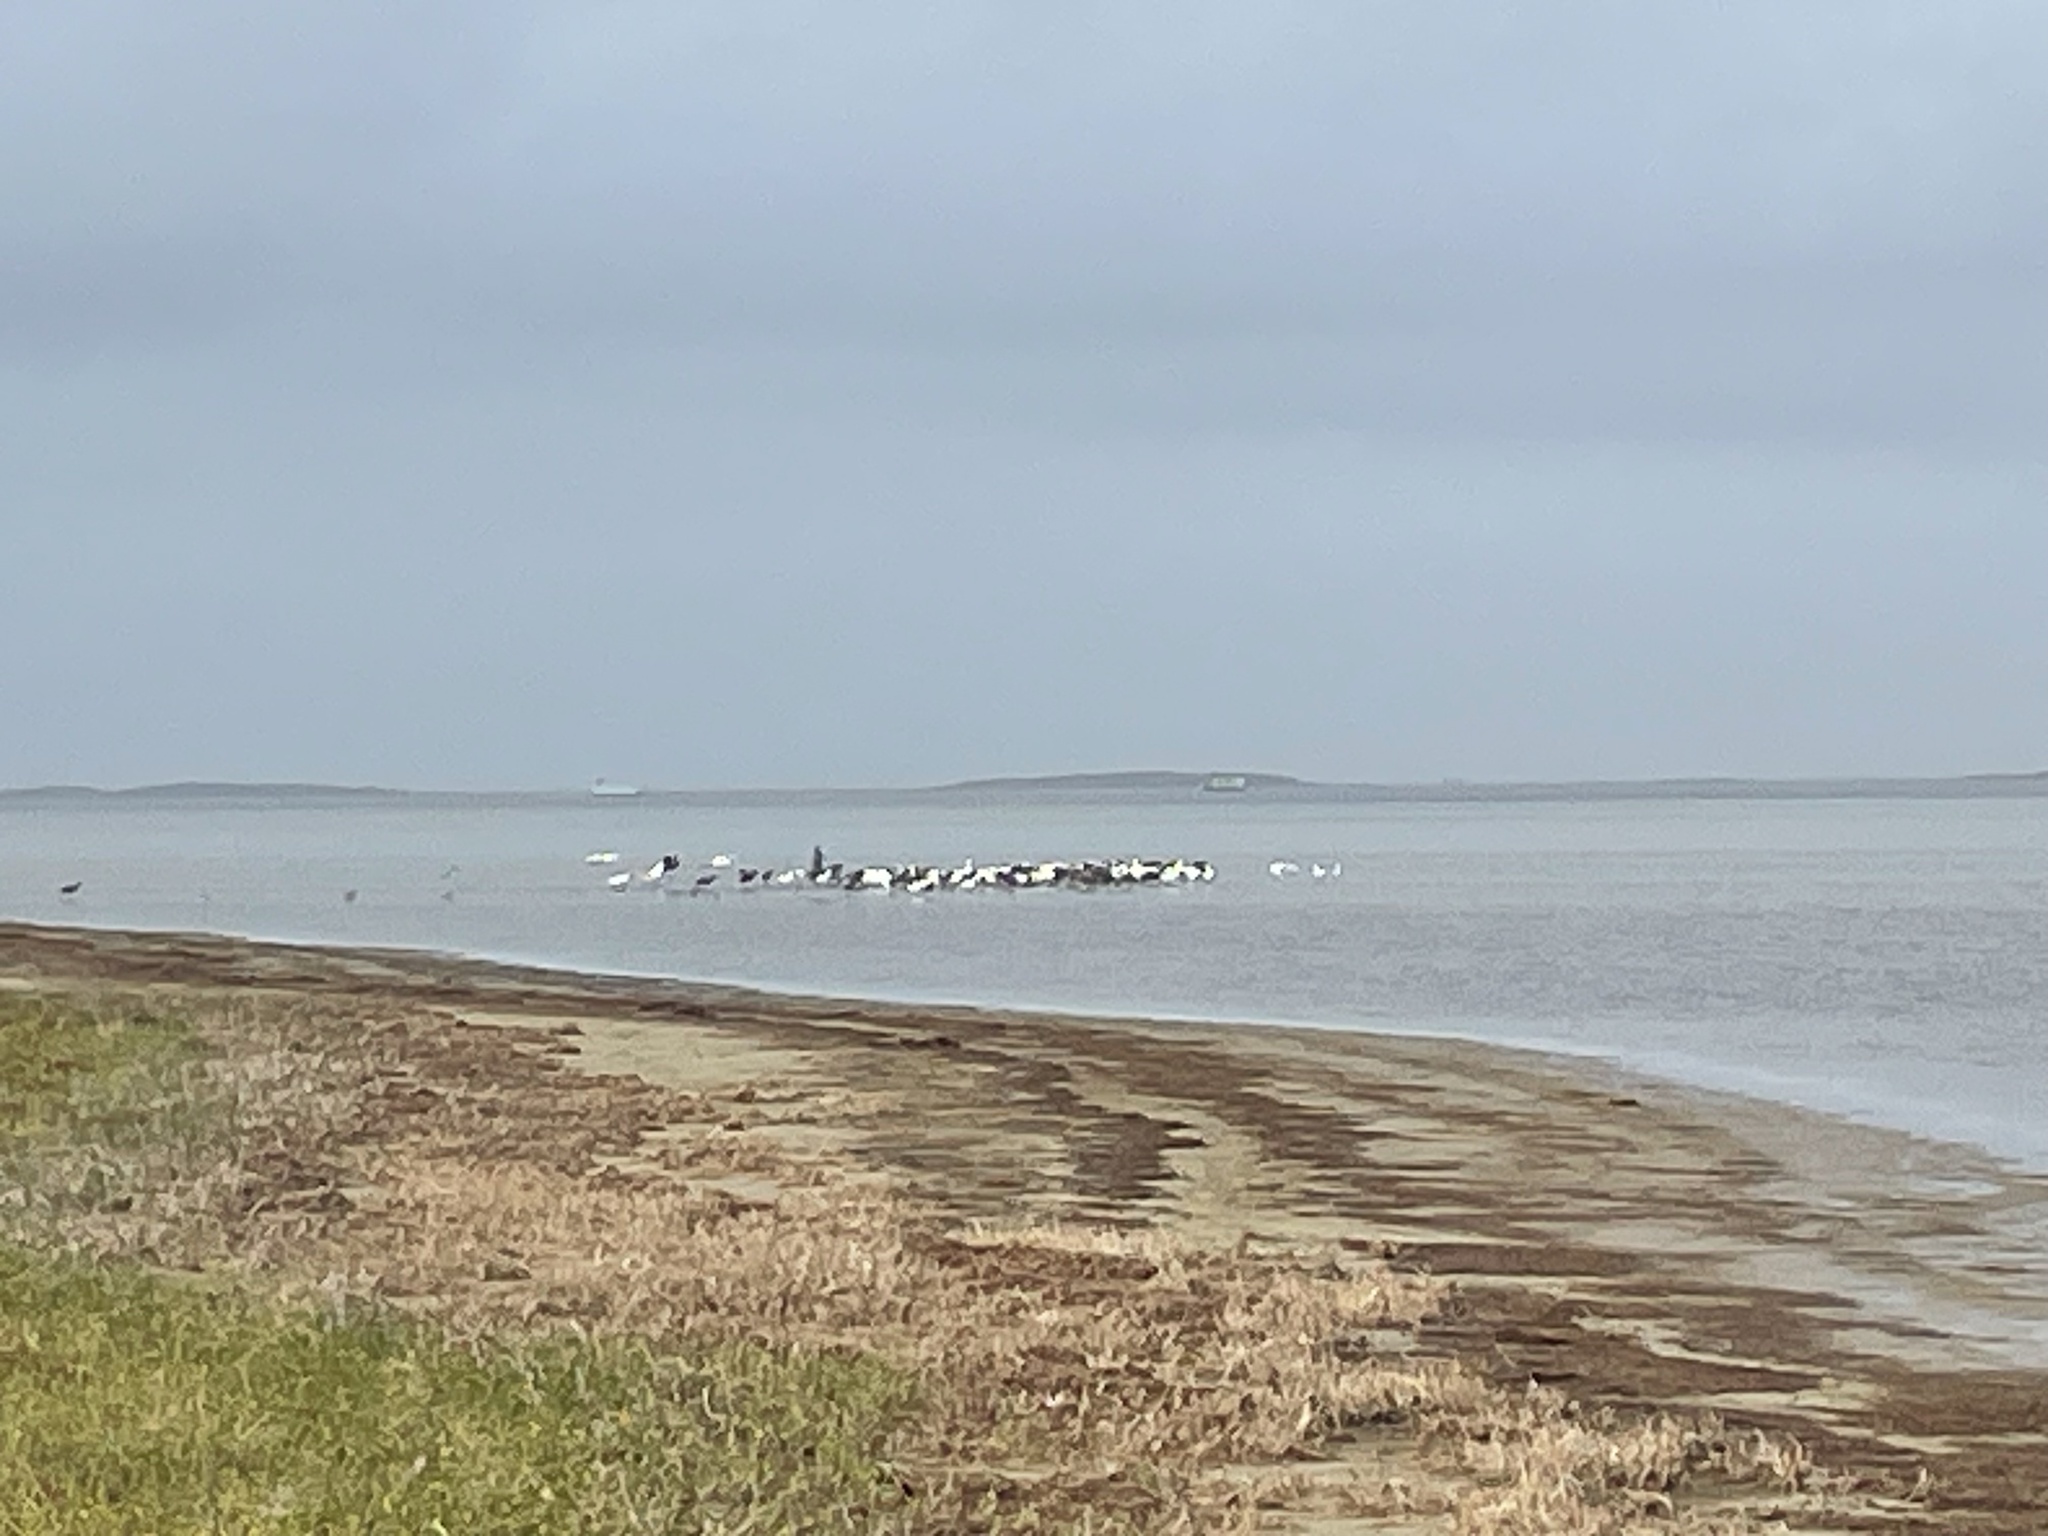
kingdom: Animalia
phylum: Chordata
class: Aves
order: Pelecaniformes
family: Pelecanidae
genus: Pelecanus
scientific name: Pelecanus erythrorhynchos
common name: American white pelican
